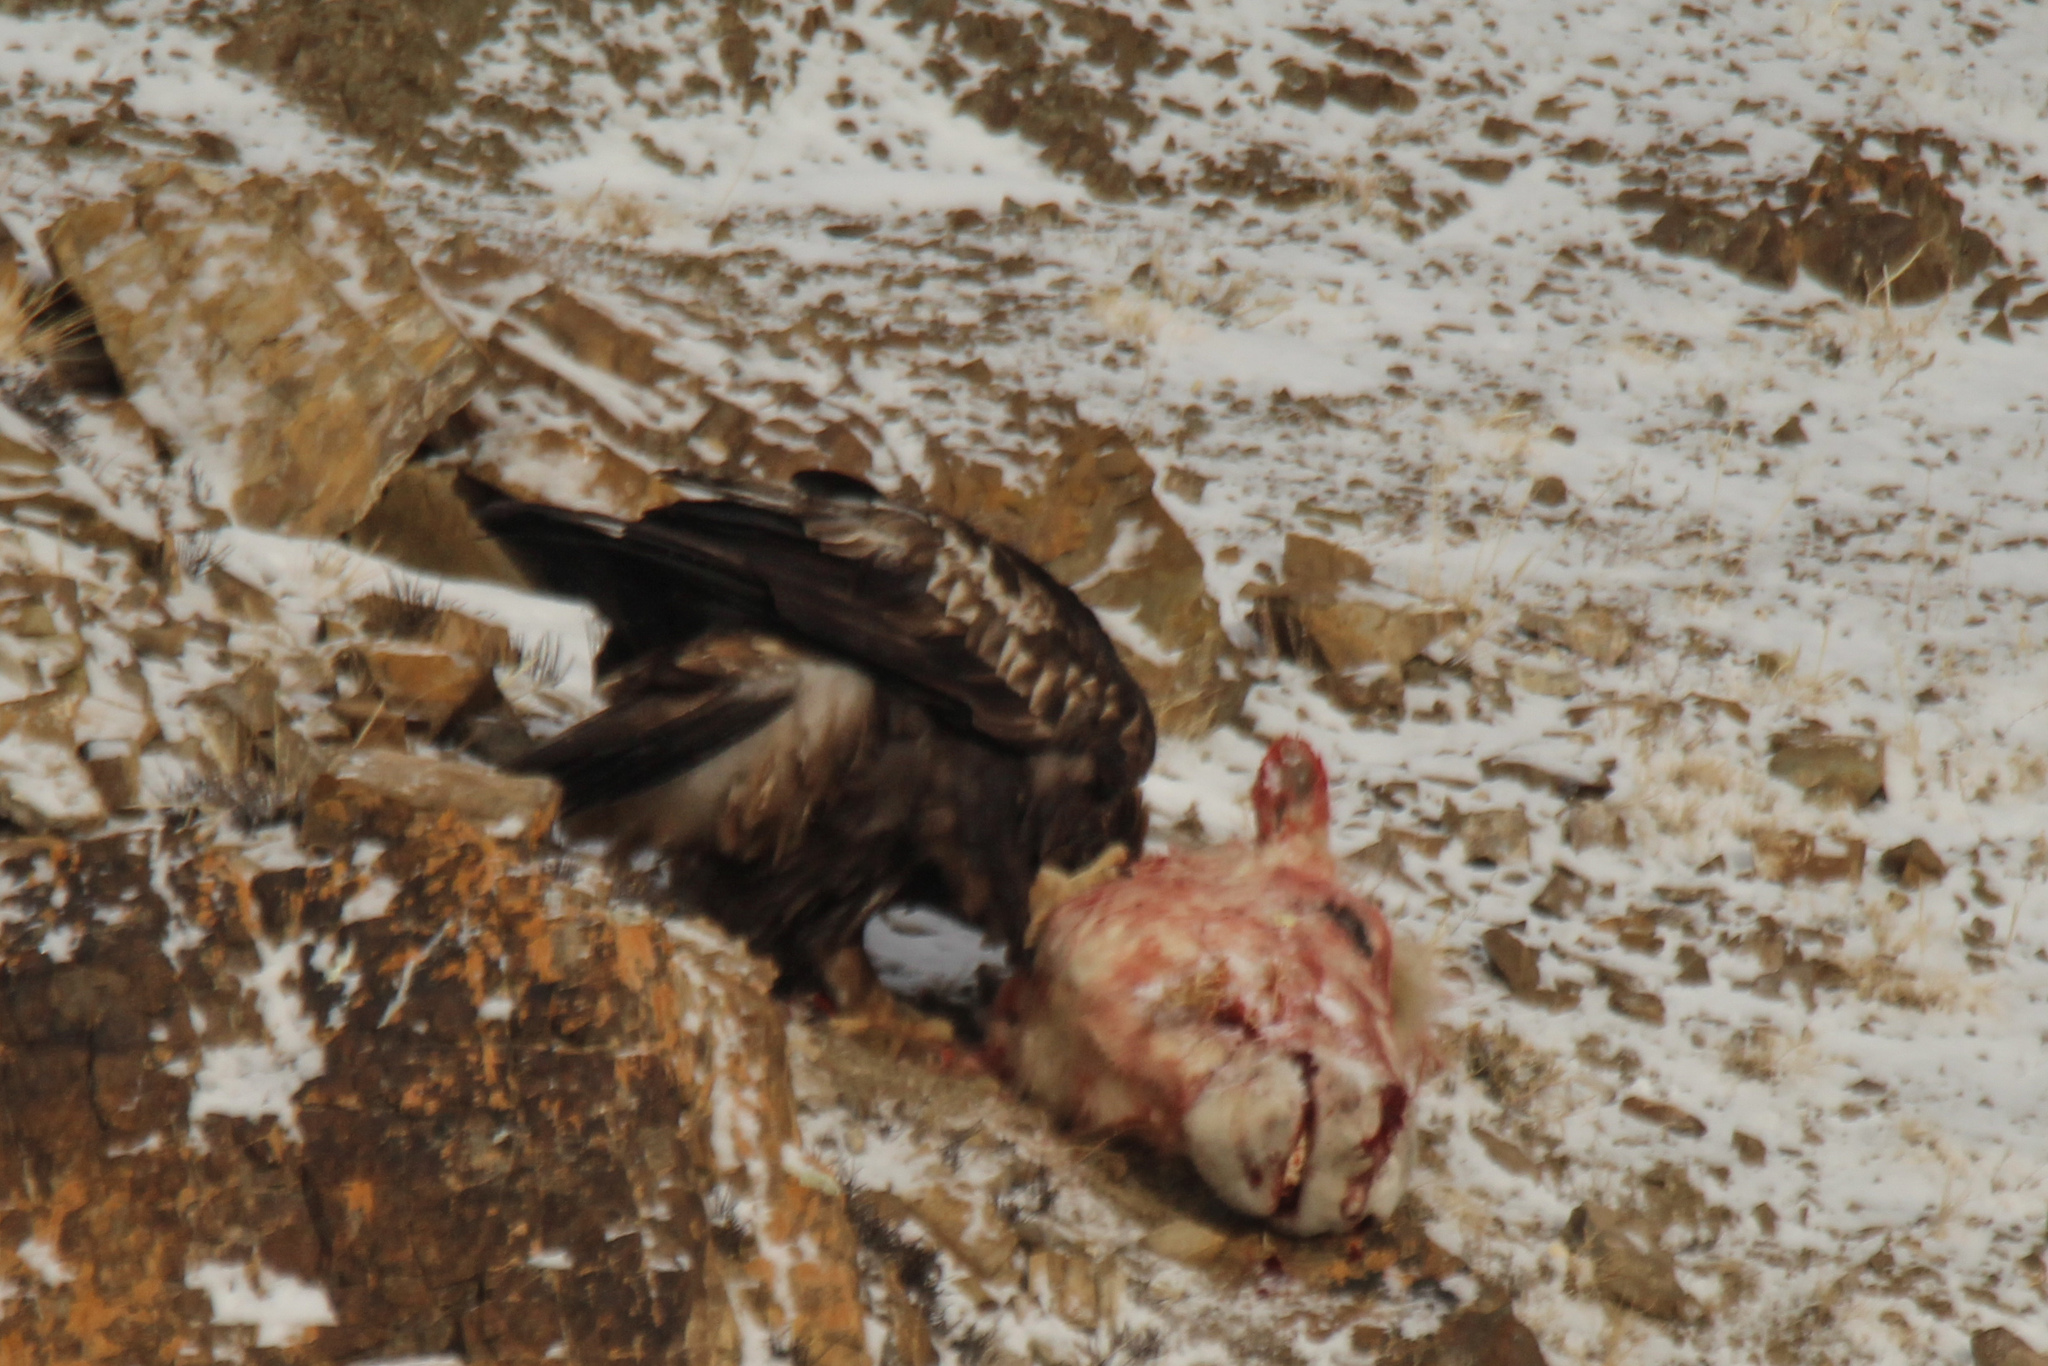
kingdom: Animalia
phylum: Chordata
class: Aves
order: Accipitriformes
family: Accipitridae
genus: Aquila
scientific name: Aquila chrysaetos
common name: Golden eagle
